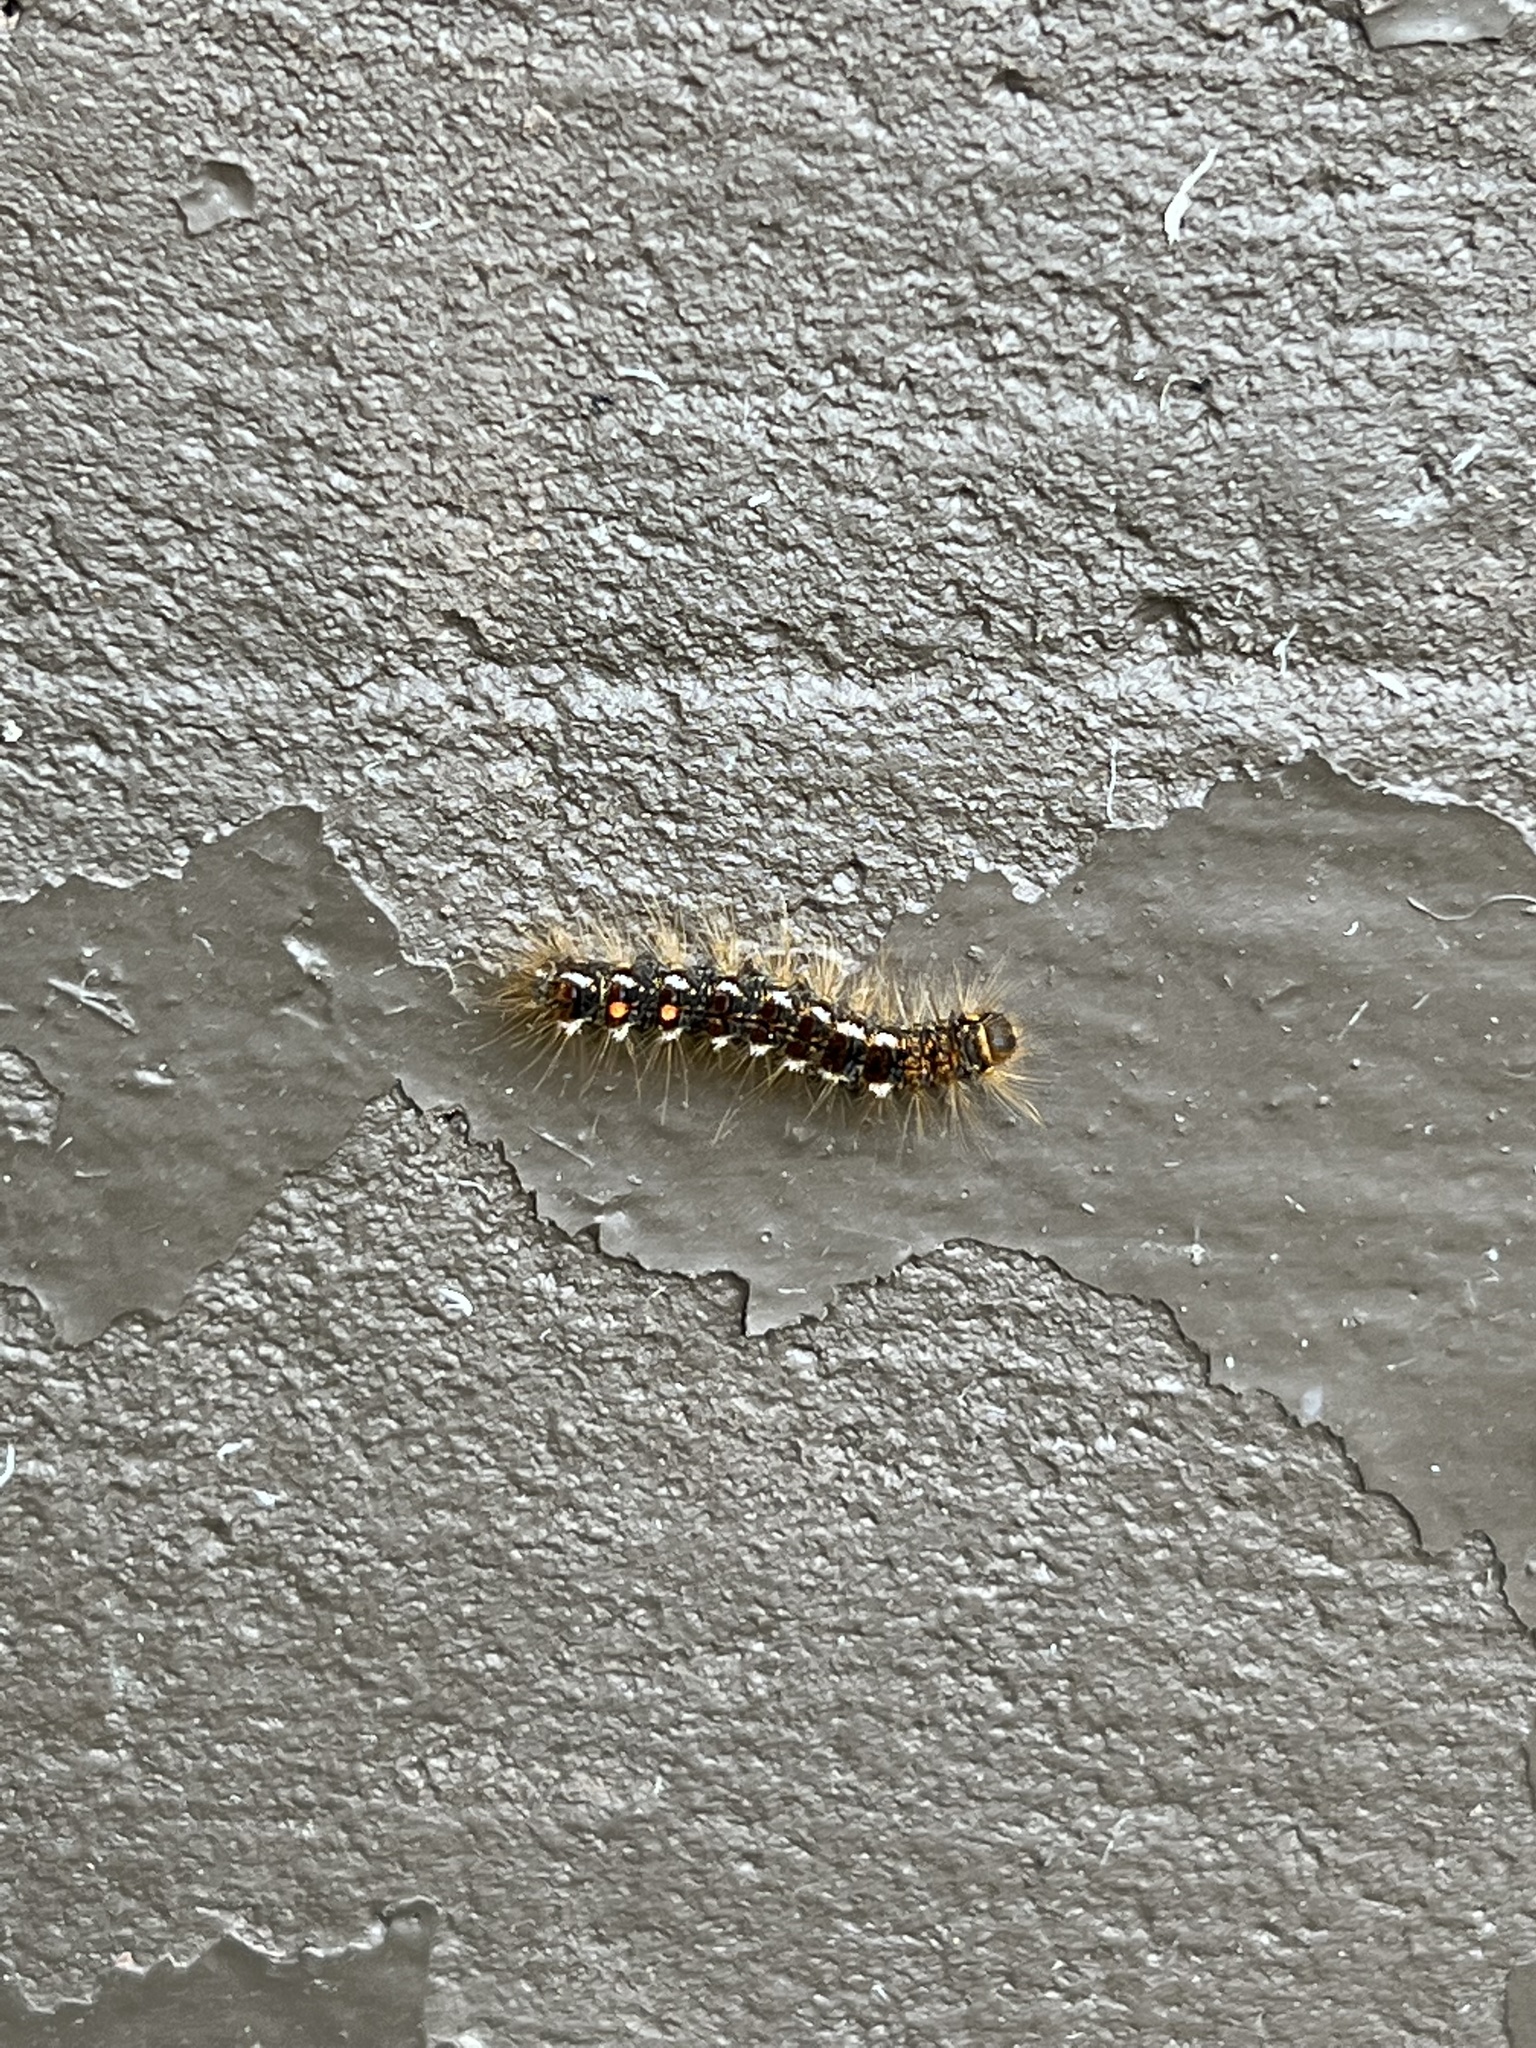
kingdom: Animalia
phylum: Arthropoda
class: Insecta
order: Lepidoptera
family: Erebidae
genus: Euproctis
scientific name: Euproctis chrysorrhoea
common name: Brown-tail
